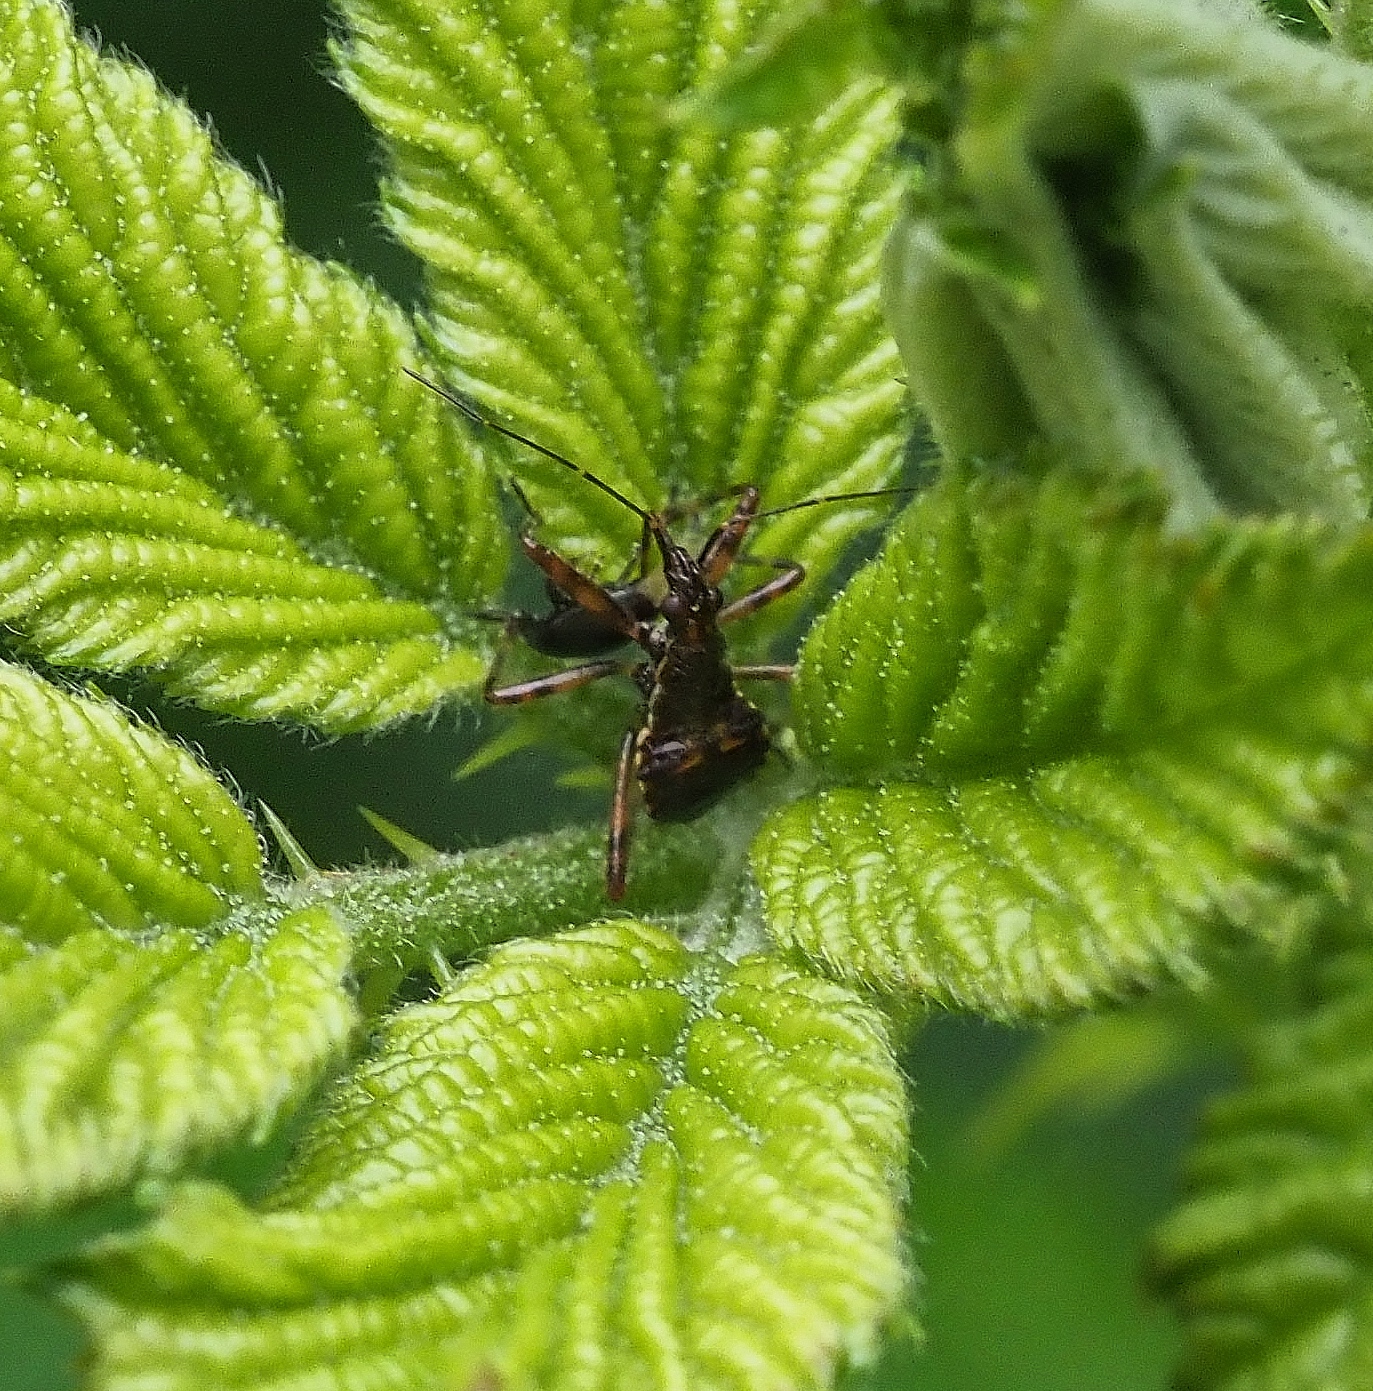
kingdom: Animalia
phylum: Arthropoda
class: Insecta
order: Hemiptera
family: Nabidae
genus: Himacerus
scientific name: Himacerus apterus
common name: Tree damsel bug
